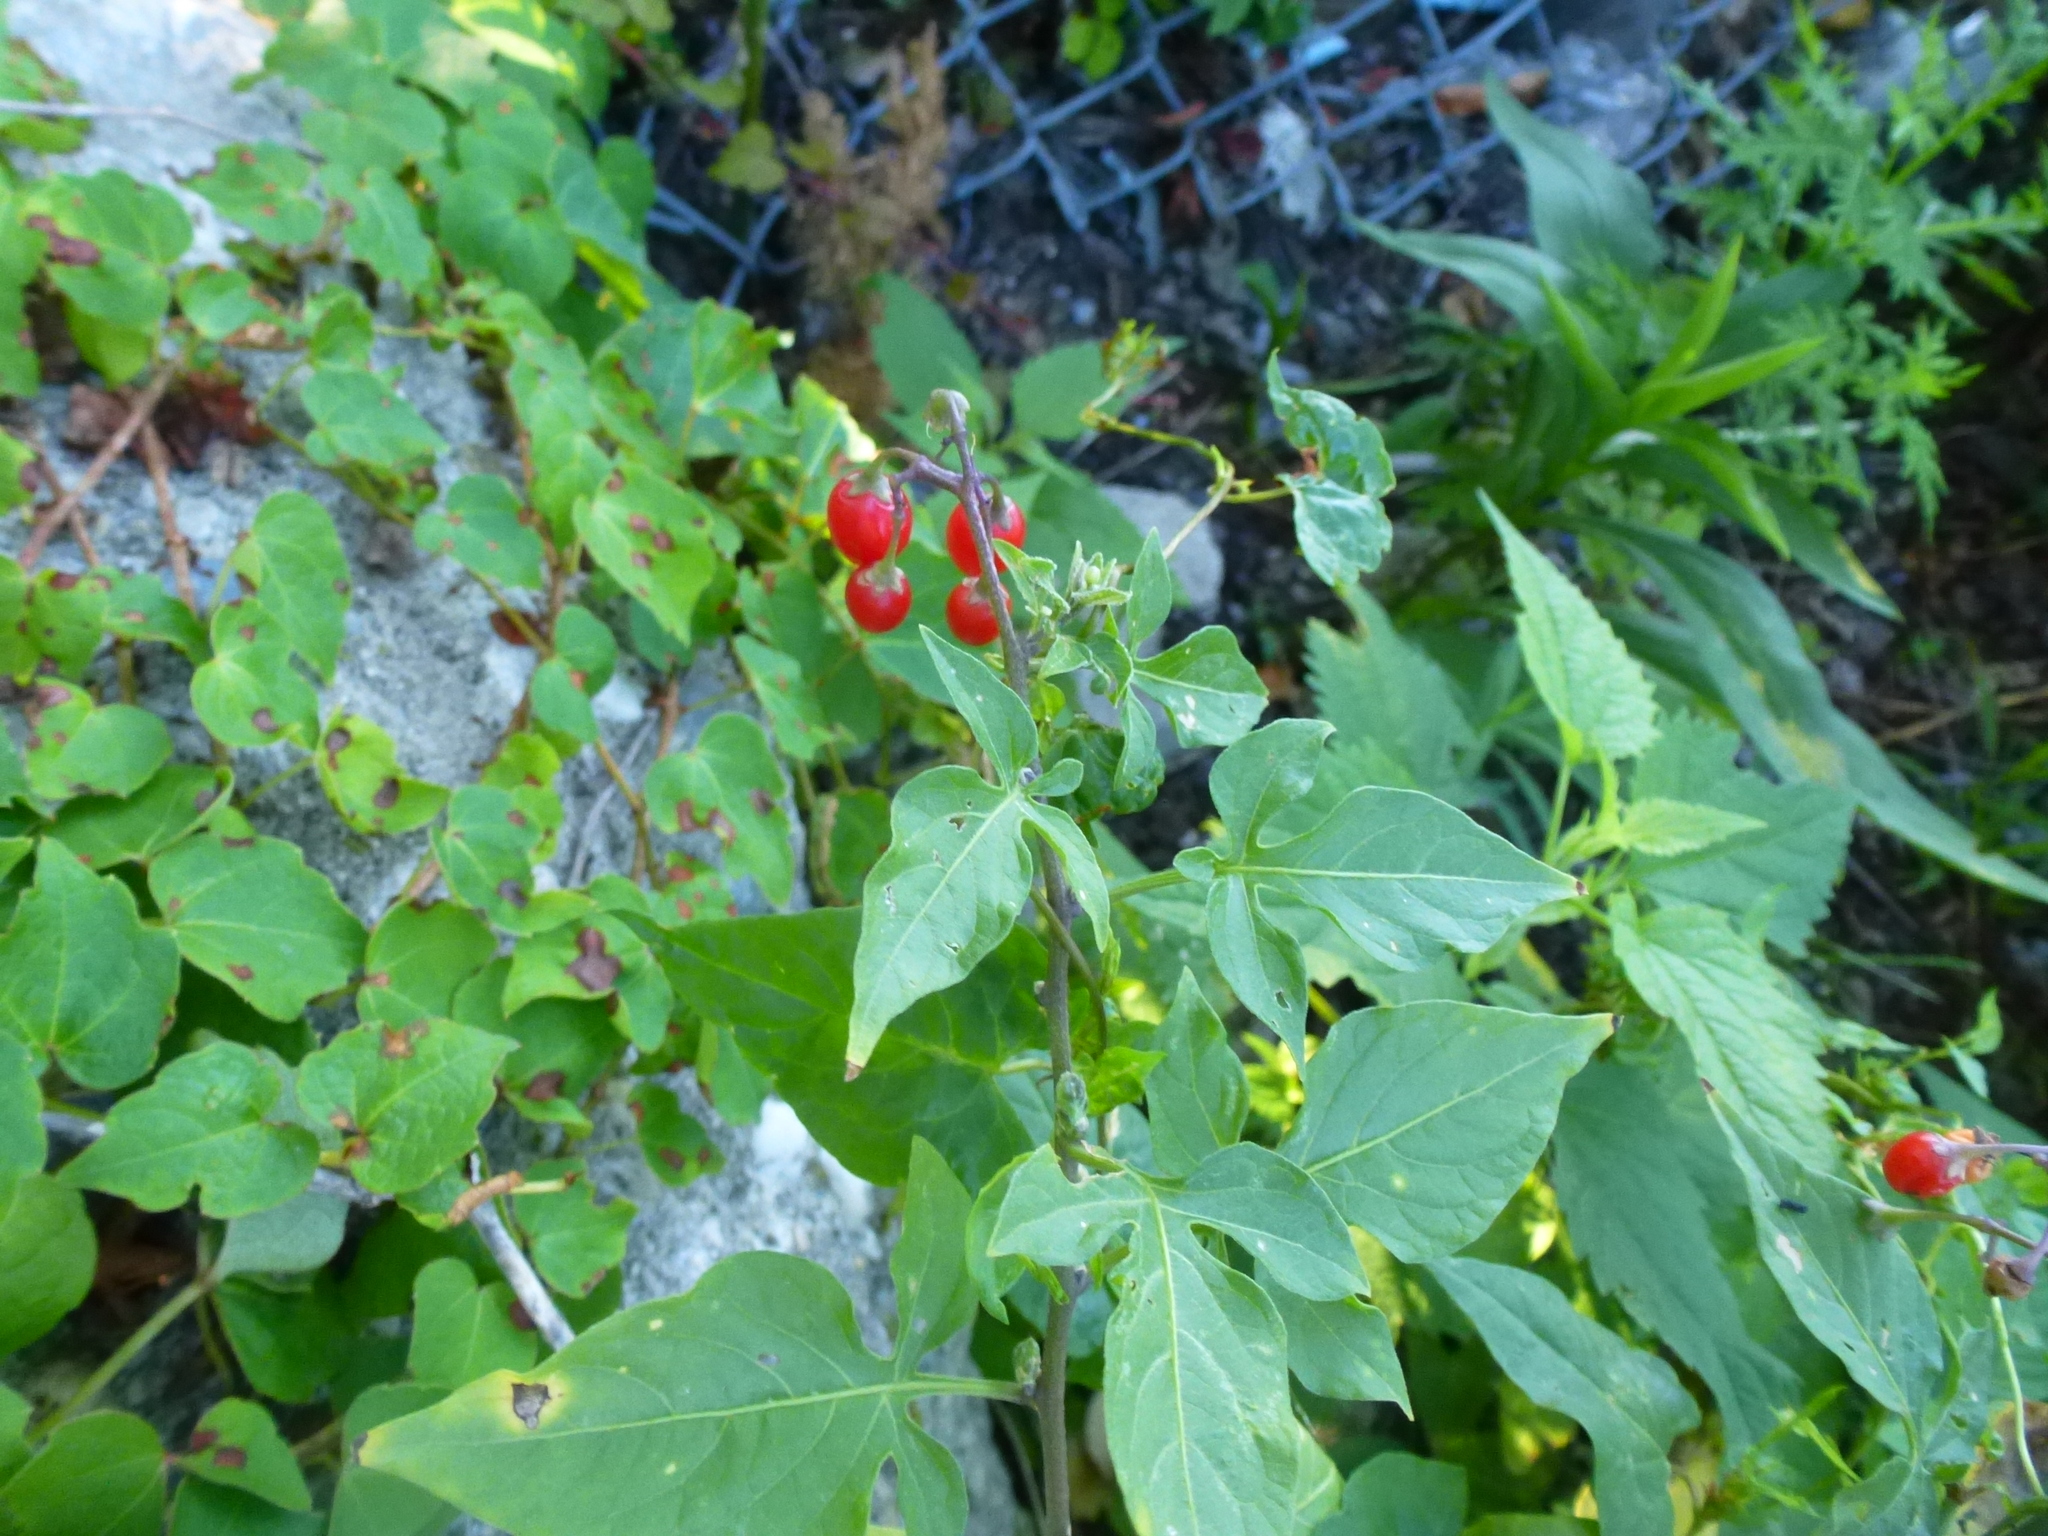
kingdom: Plantae
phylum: Tracheophyta
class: Magnoliopsida
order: Solanales
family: Solanaceae
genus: Solanum
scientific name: Solanum dulcamara
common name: Climbing nightshade
